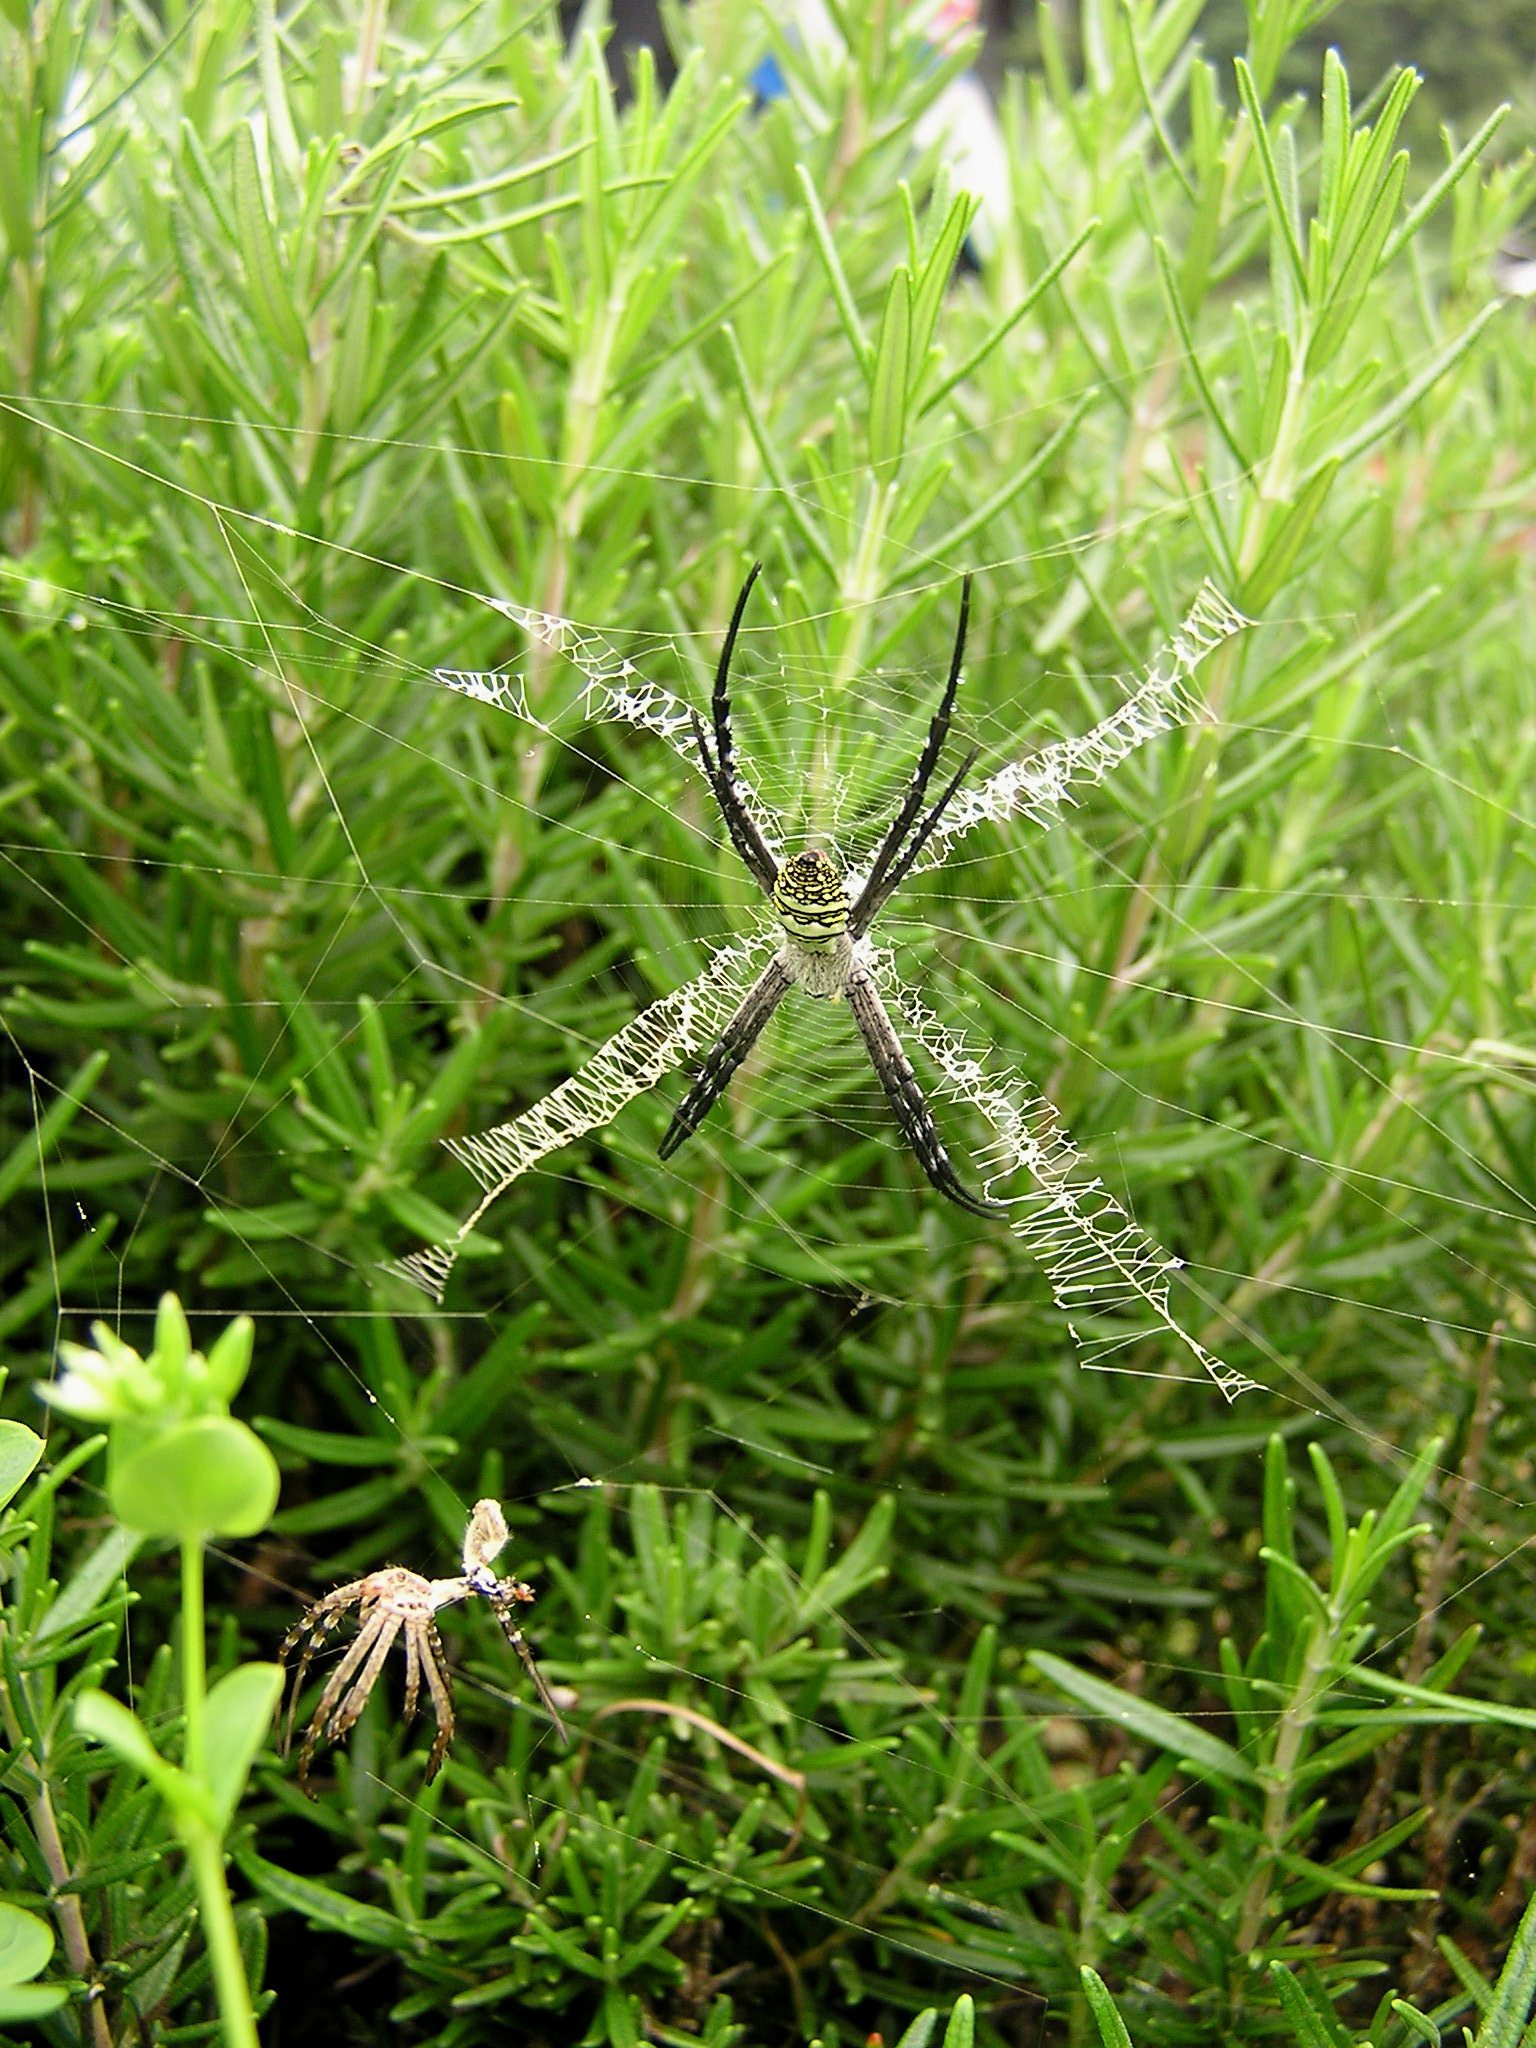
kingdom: Animalia
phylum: Arthropoda
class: Arachnida
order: Araneae
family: Araneidae
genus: Argiope
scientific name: Argiope aemula
